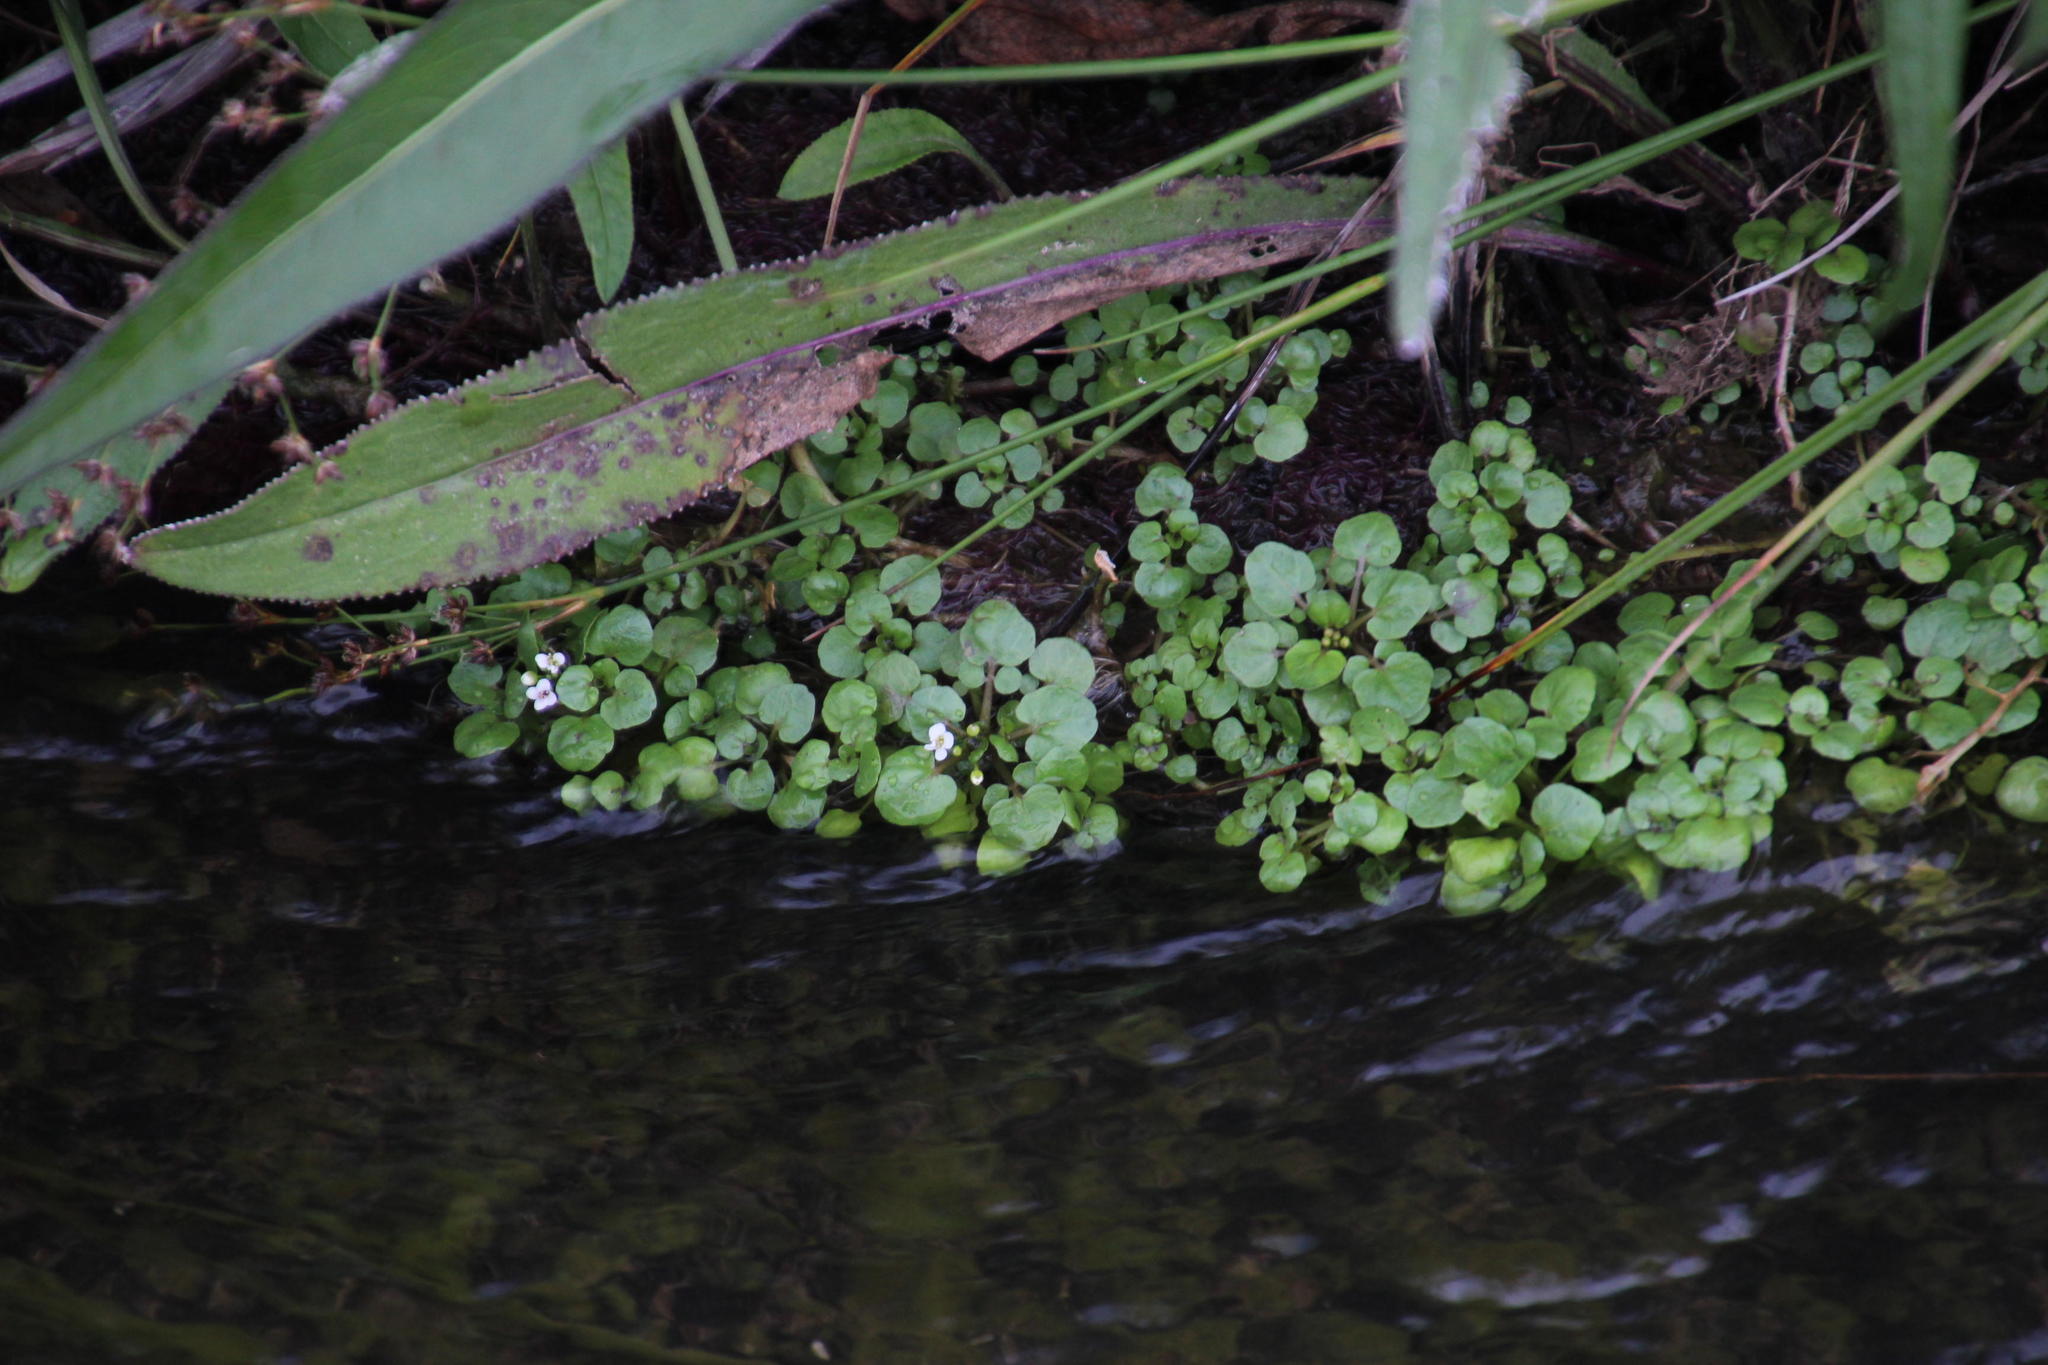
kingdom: Plantae
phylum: Tracheophyta
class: Magnoliopsida
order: Brassicales
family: Brassicaceae
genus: Nasturtium
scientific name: Nasturtium officinale
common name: Watercress
